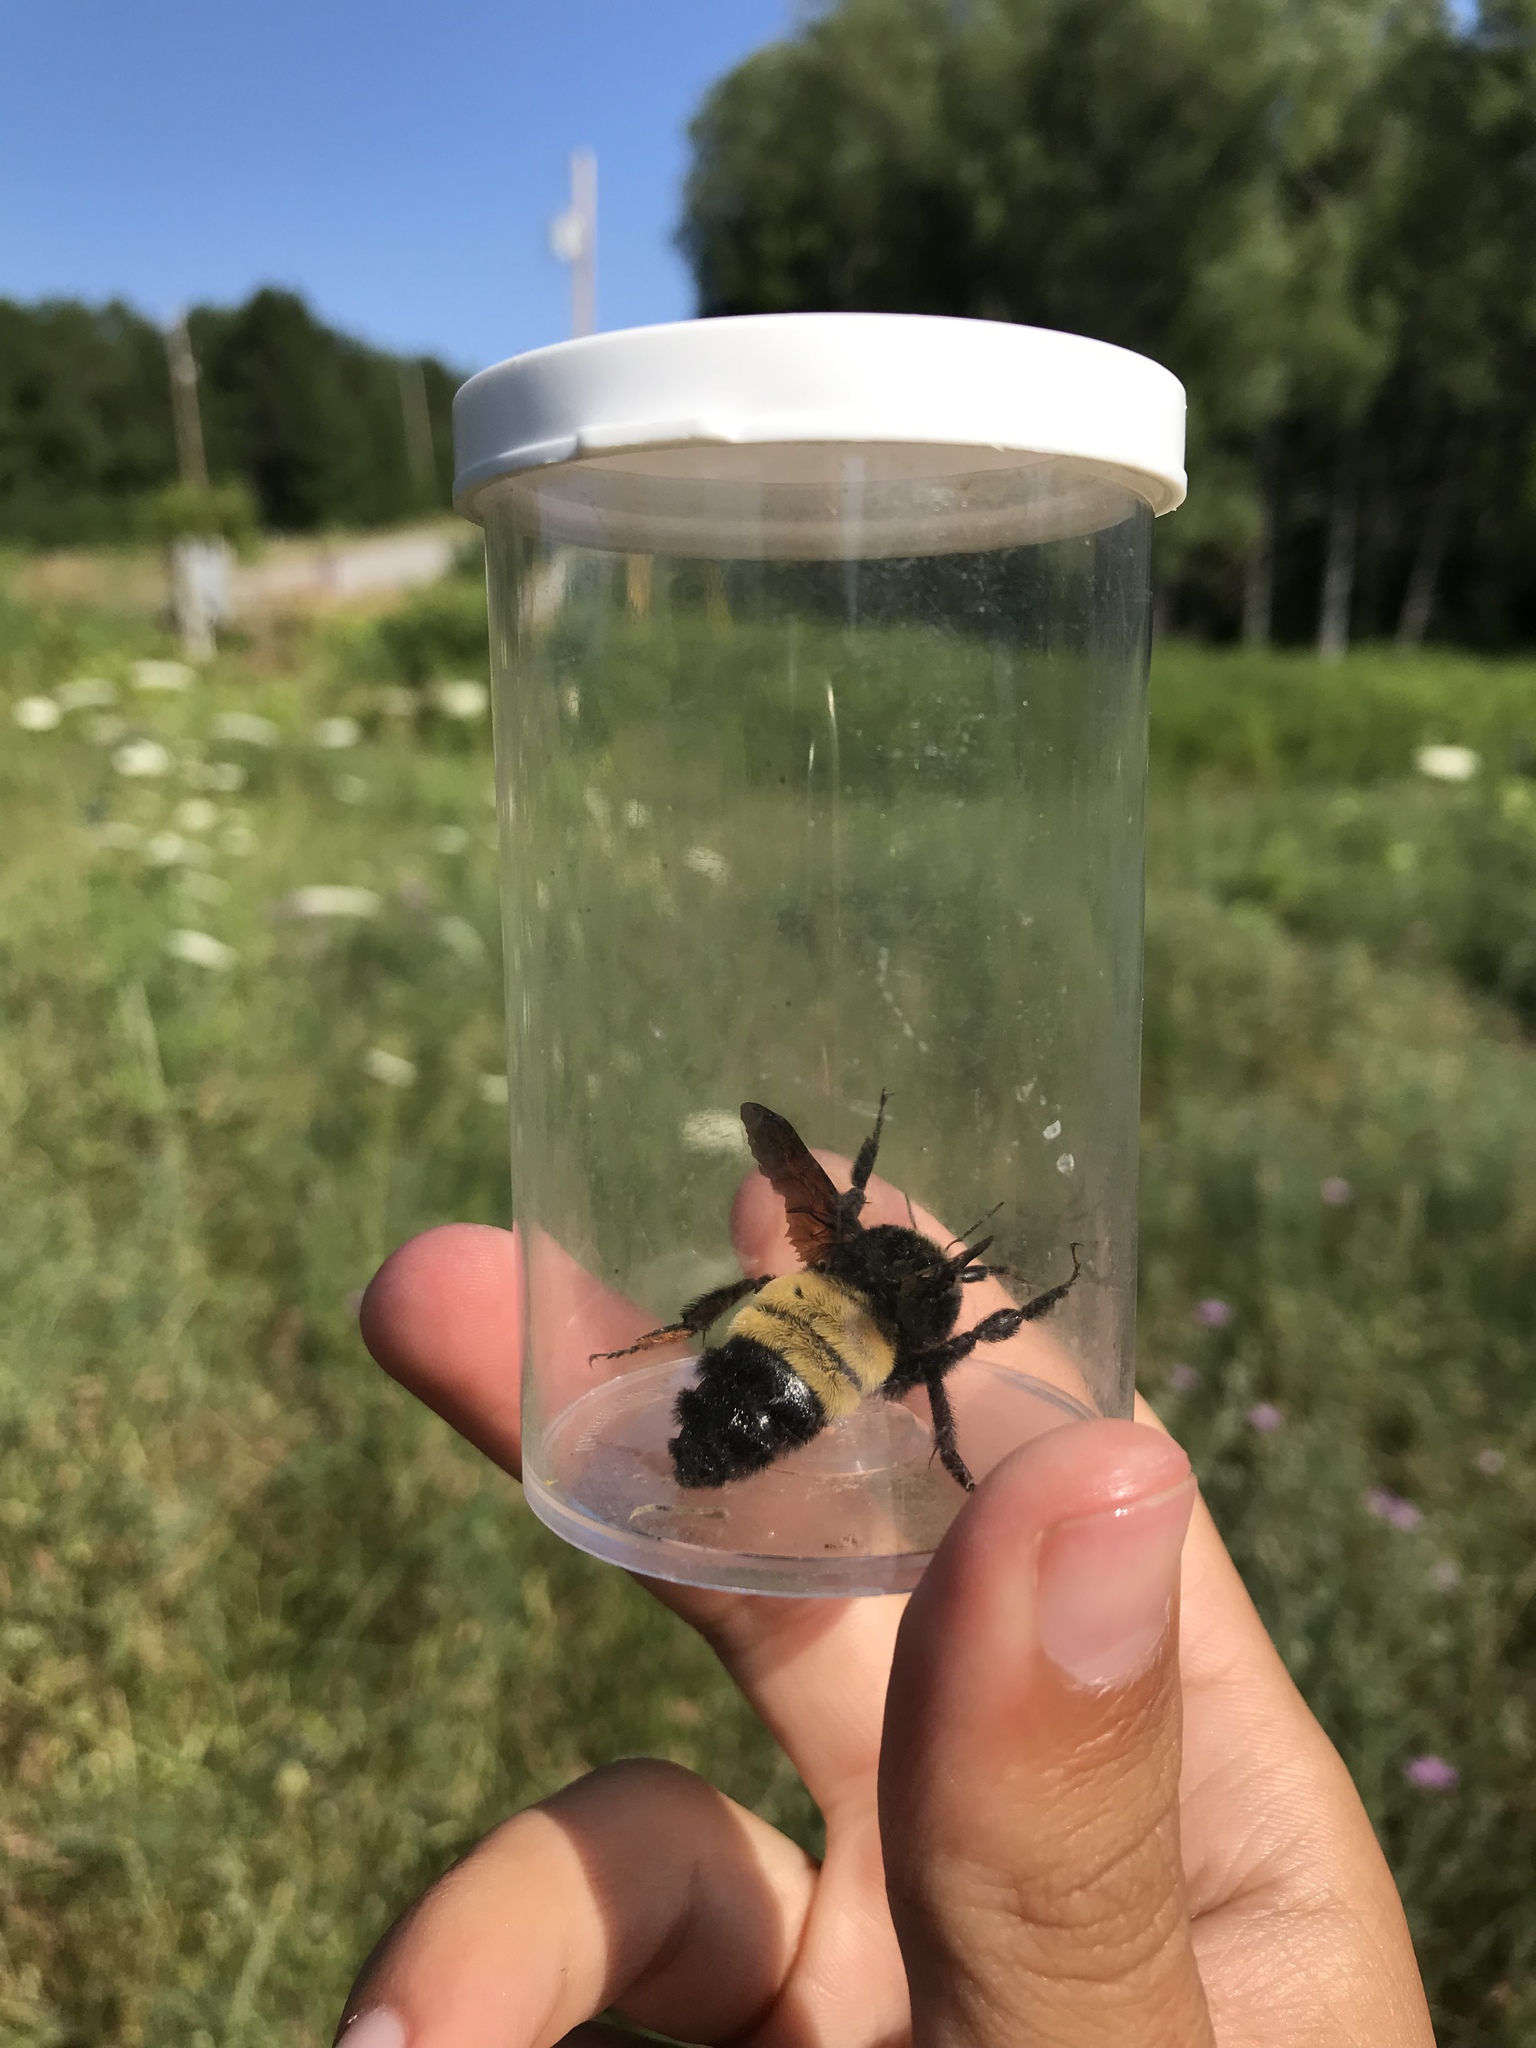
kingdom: Animalia
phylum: Arthropoda
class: Insecta
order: Hymenoptera
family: Apidae
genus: Bombus
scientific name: Bombus pensylvanicus
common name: Bumble bee
